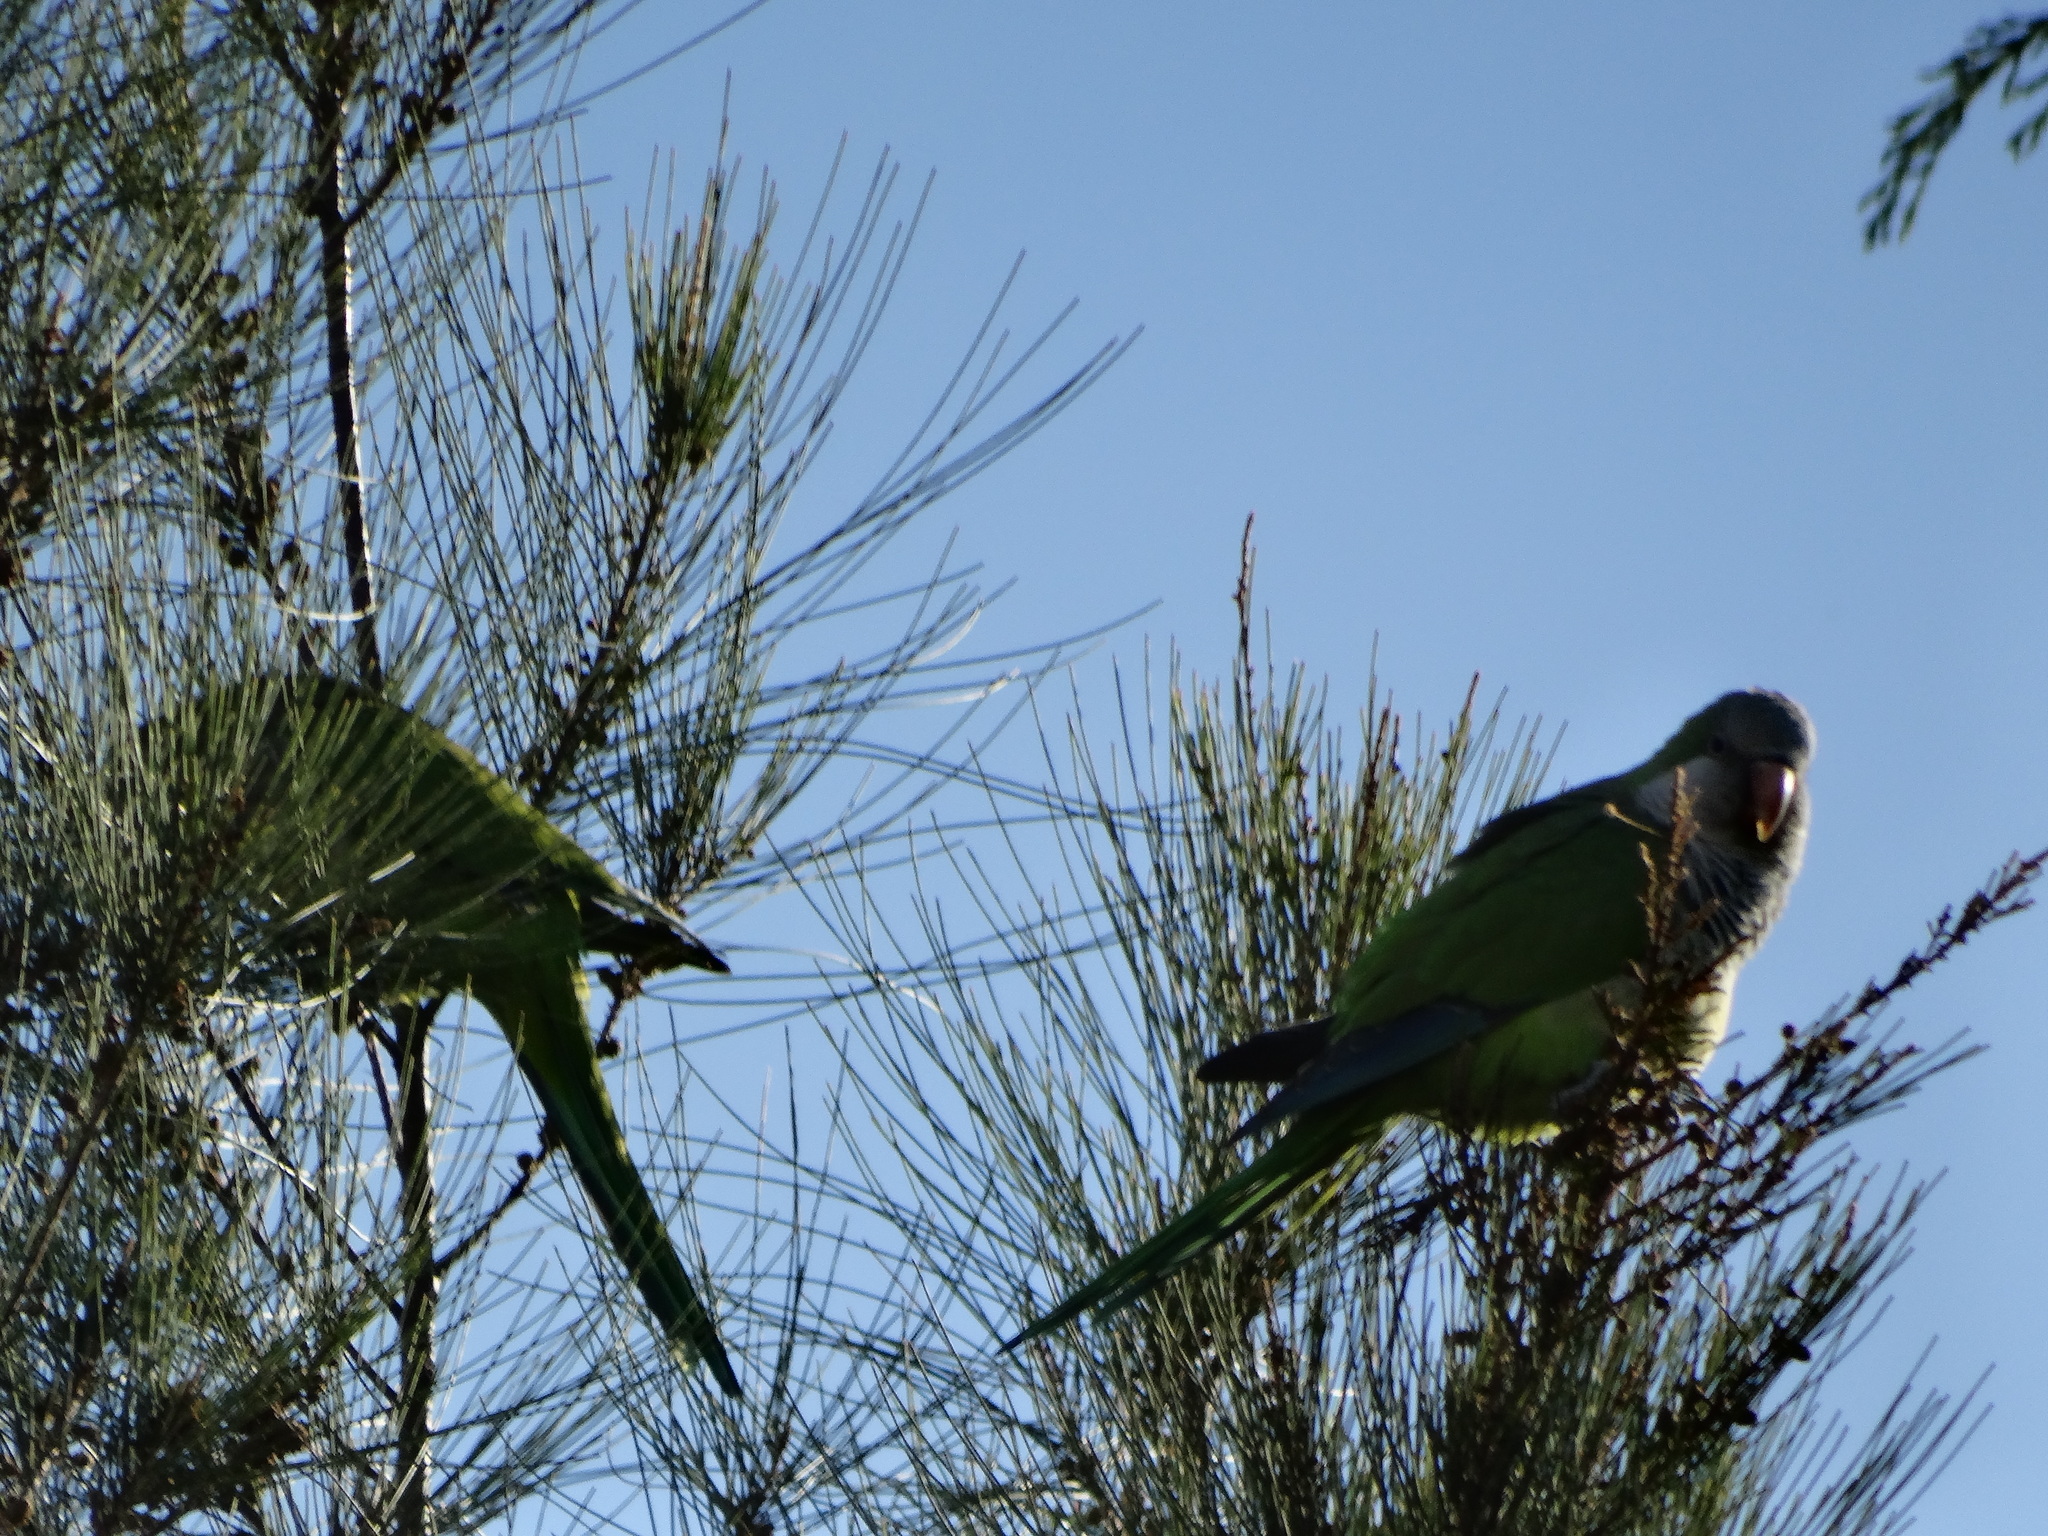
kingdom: Animalia
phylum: Chordata
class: Aves
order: Psittaciformes
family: Psittacidae
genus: Myiopsitta
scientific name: Myiopsitta monachus
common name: Monk parakeet
